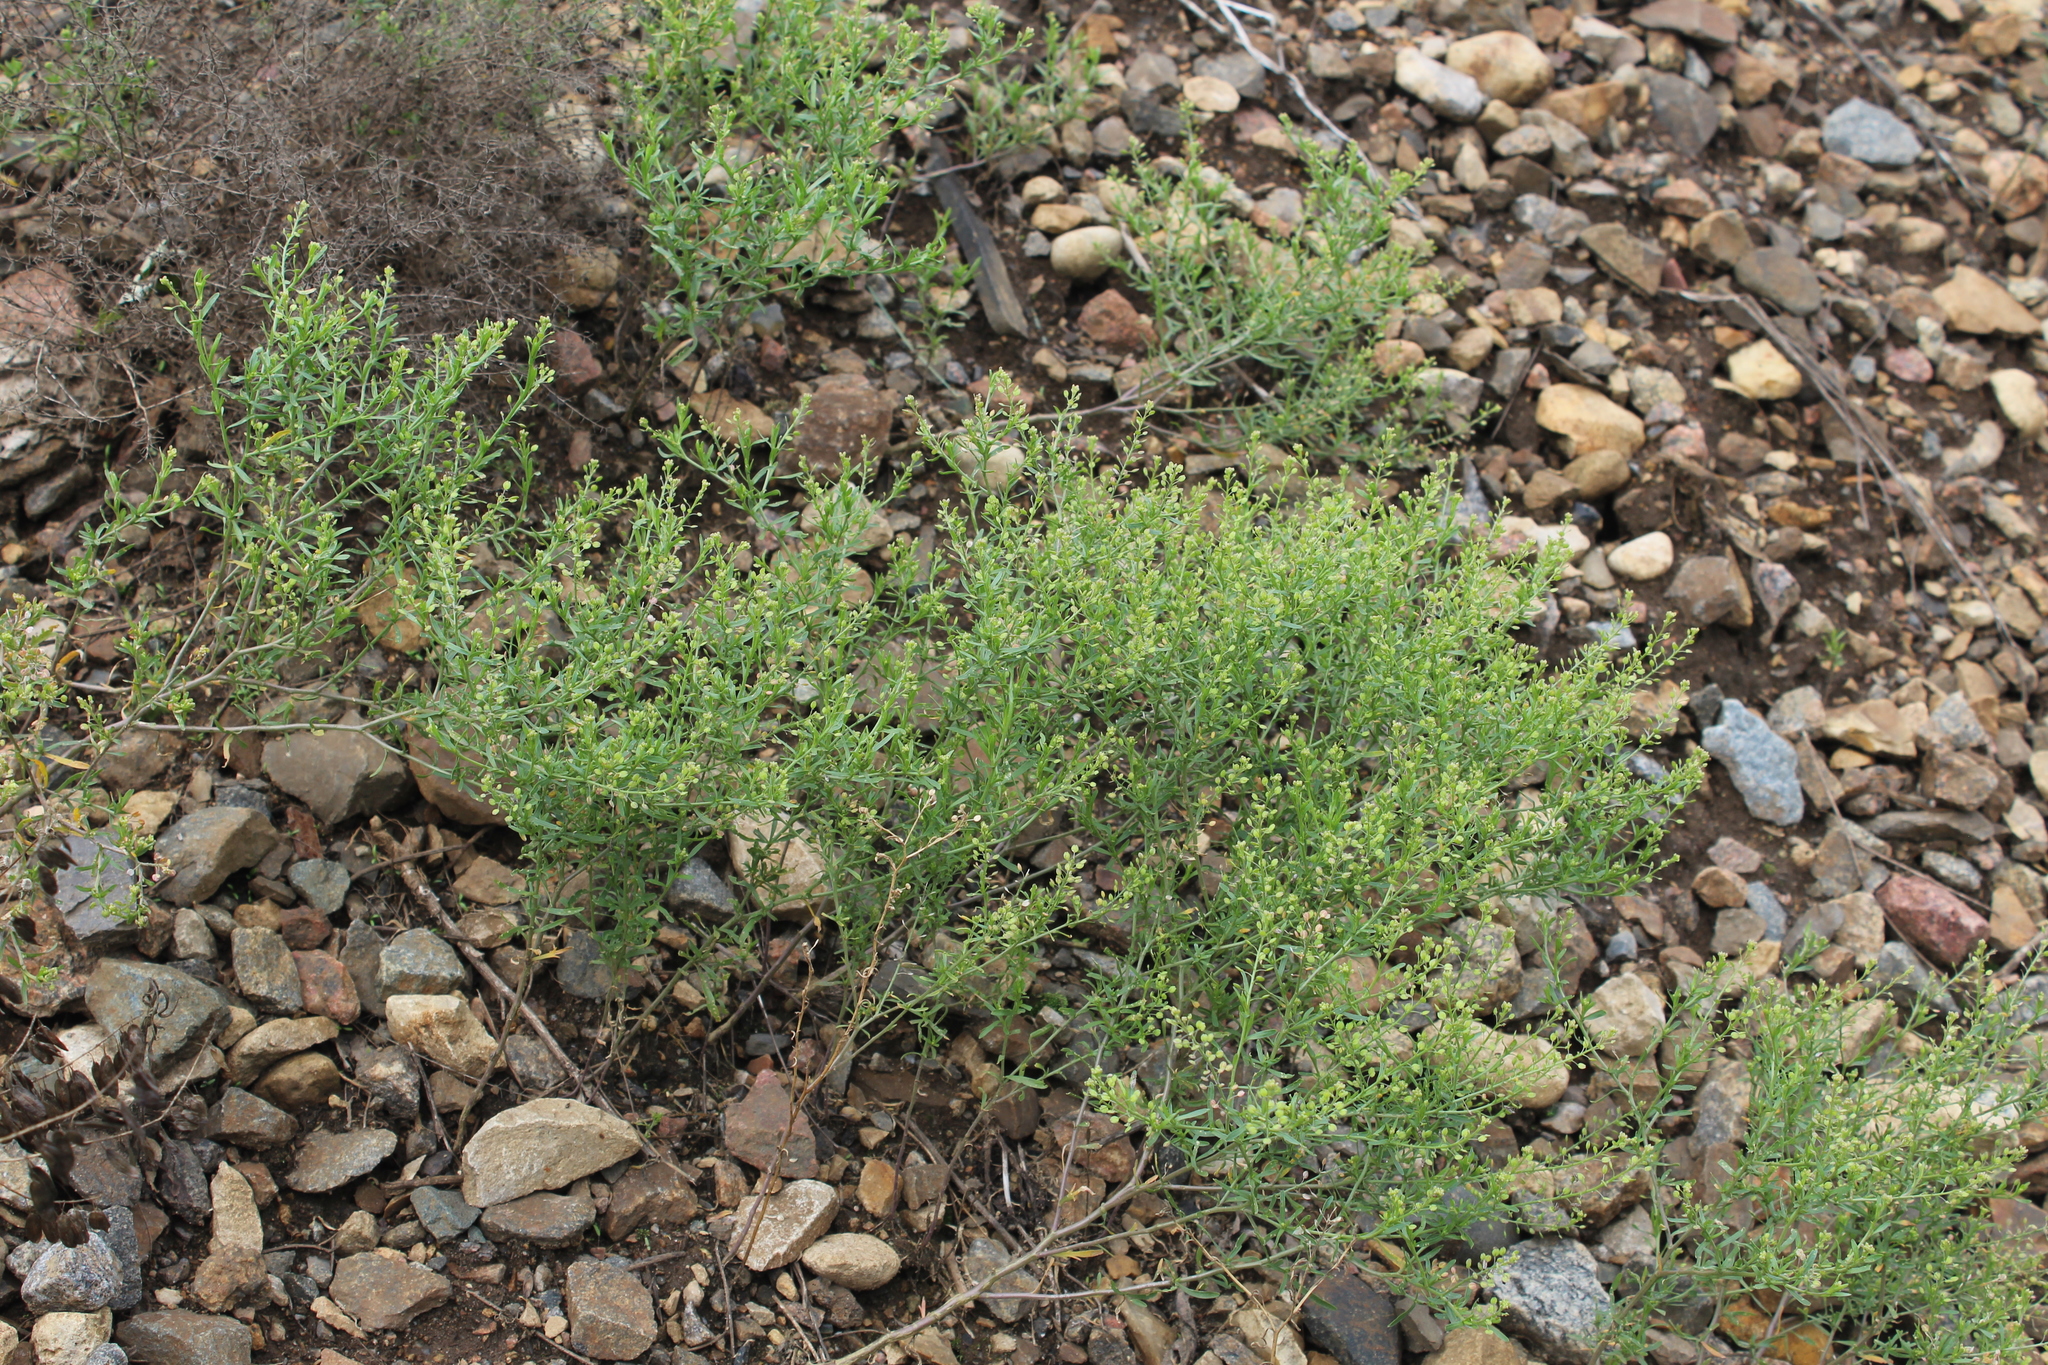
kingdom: Plantae
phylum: Tracheophyta
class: Magnoliopsida
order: Brassicales
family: Brassicaceae
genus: Lepidium
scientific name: Lepidium ruderale
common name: Narrow-leaved pepperwort
